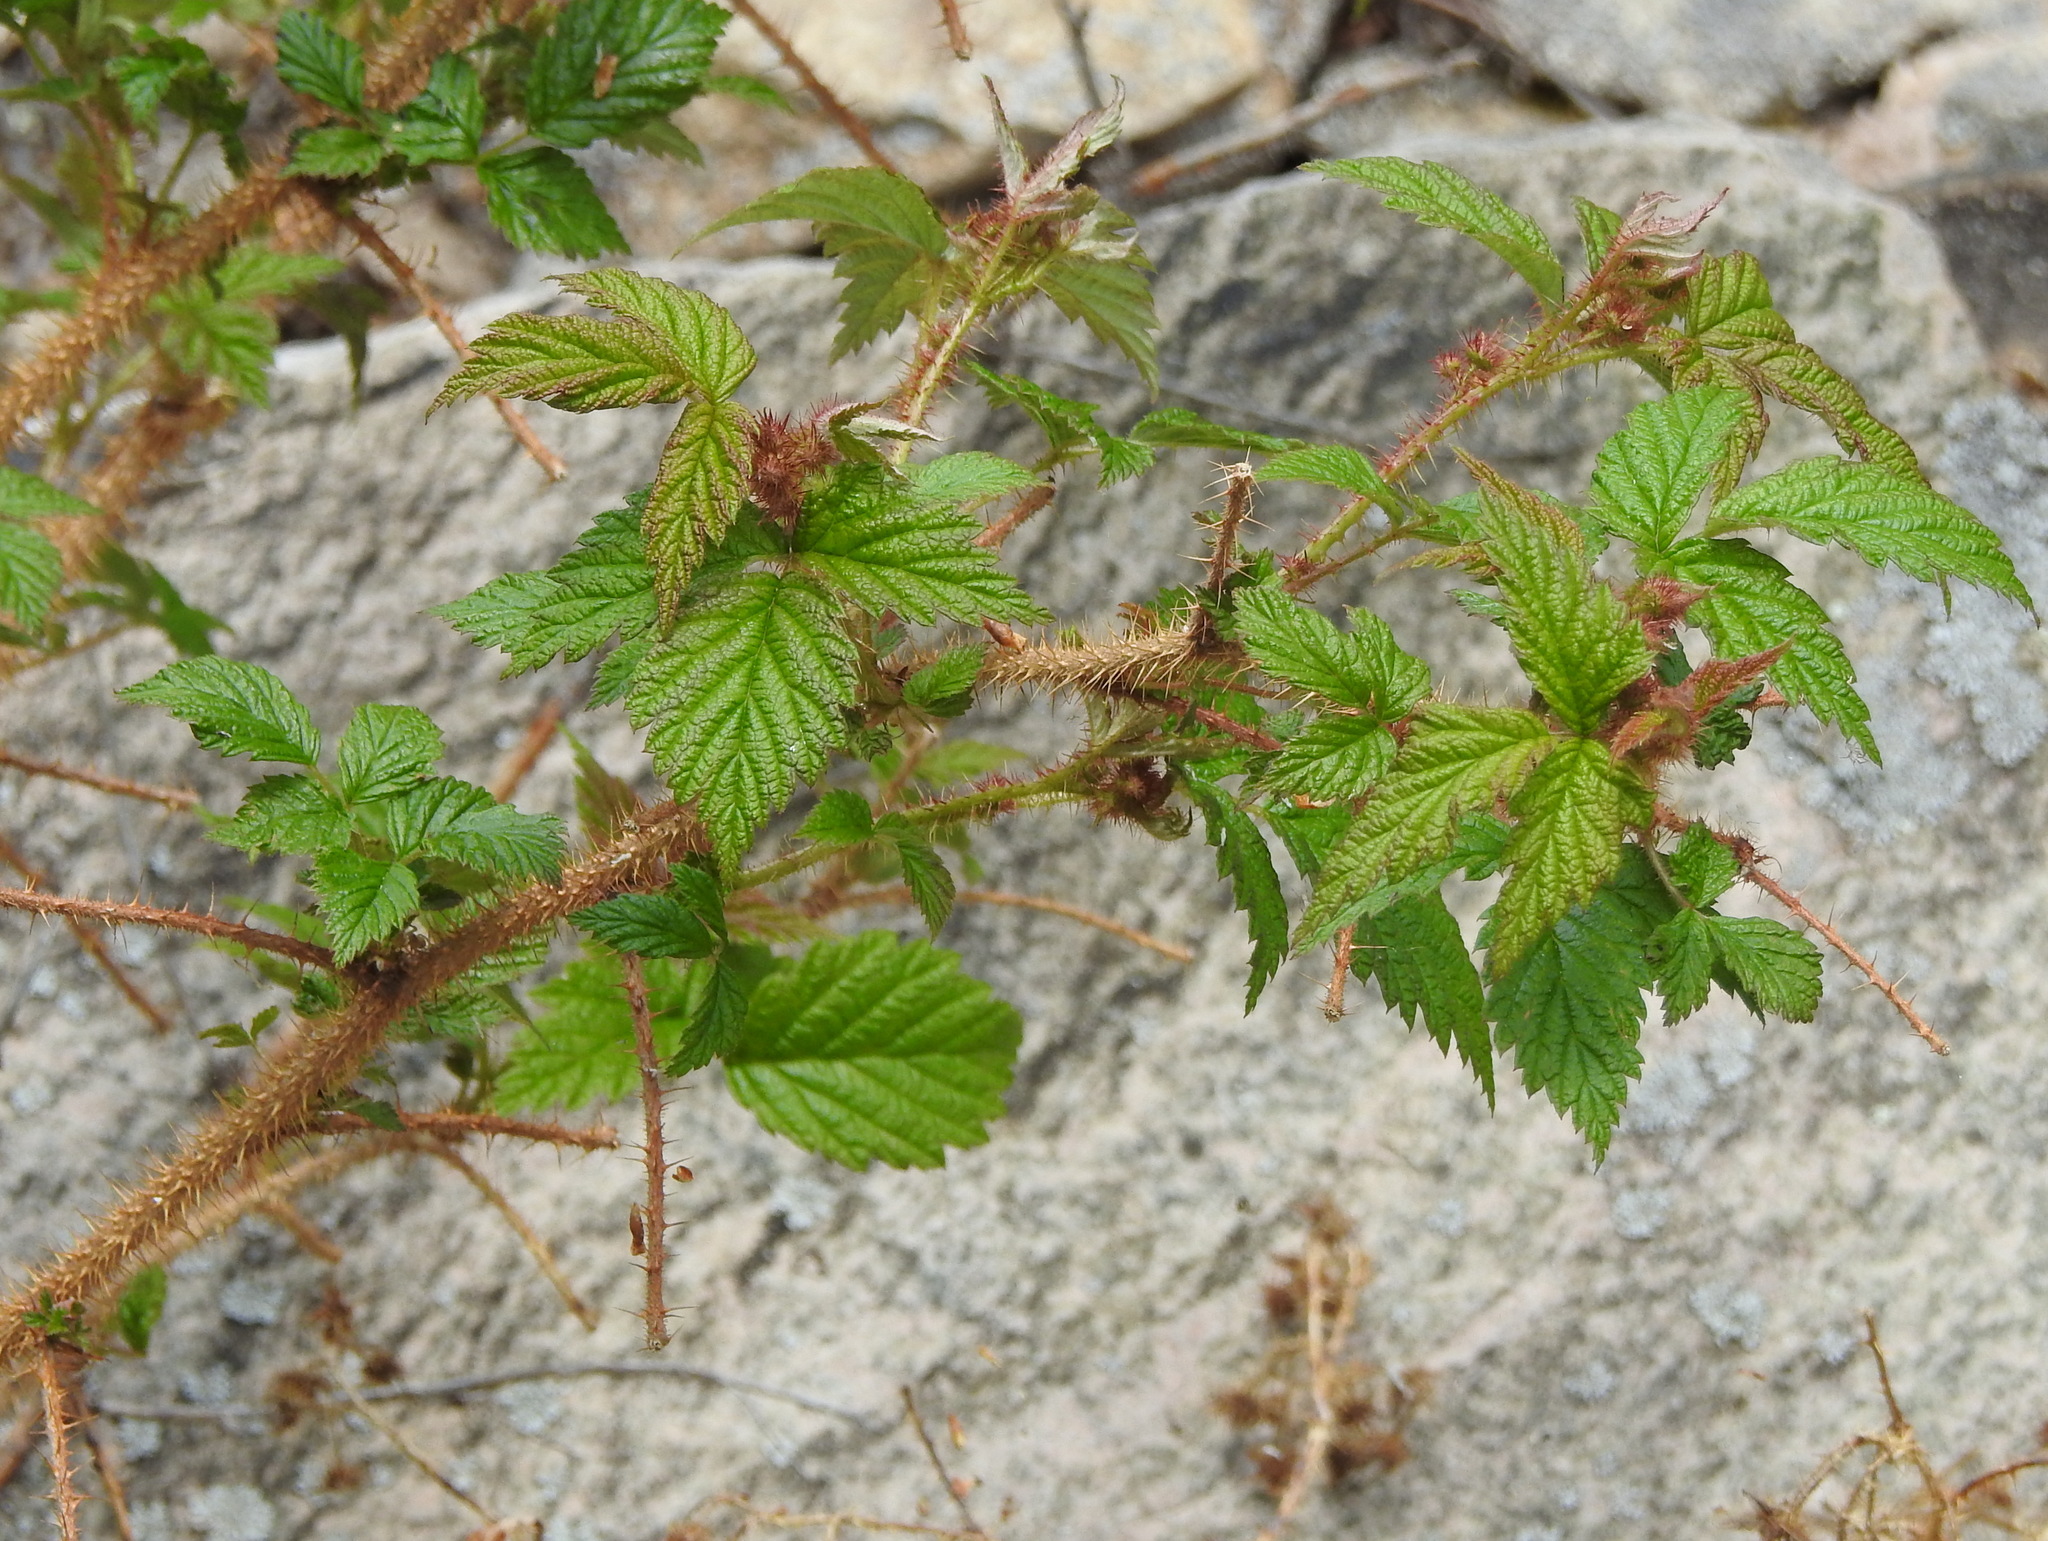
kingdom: Plantae
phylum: Tracheophyta
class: Magnoliopsida
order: Rosales
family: Rosaceae
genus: Rubus
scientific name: Rubus sachalinensis
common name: Red raspberry
